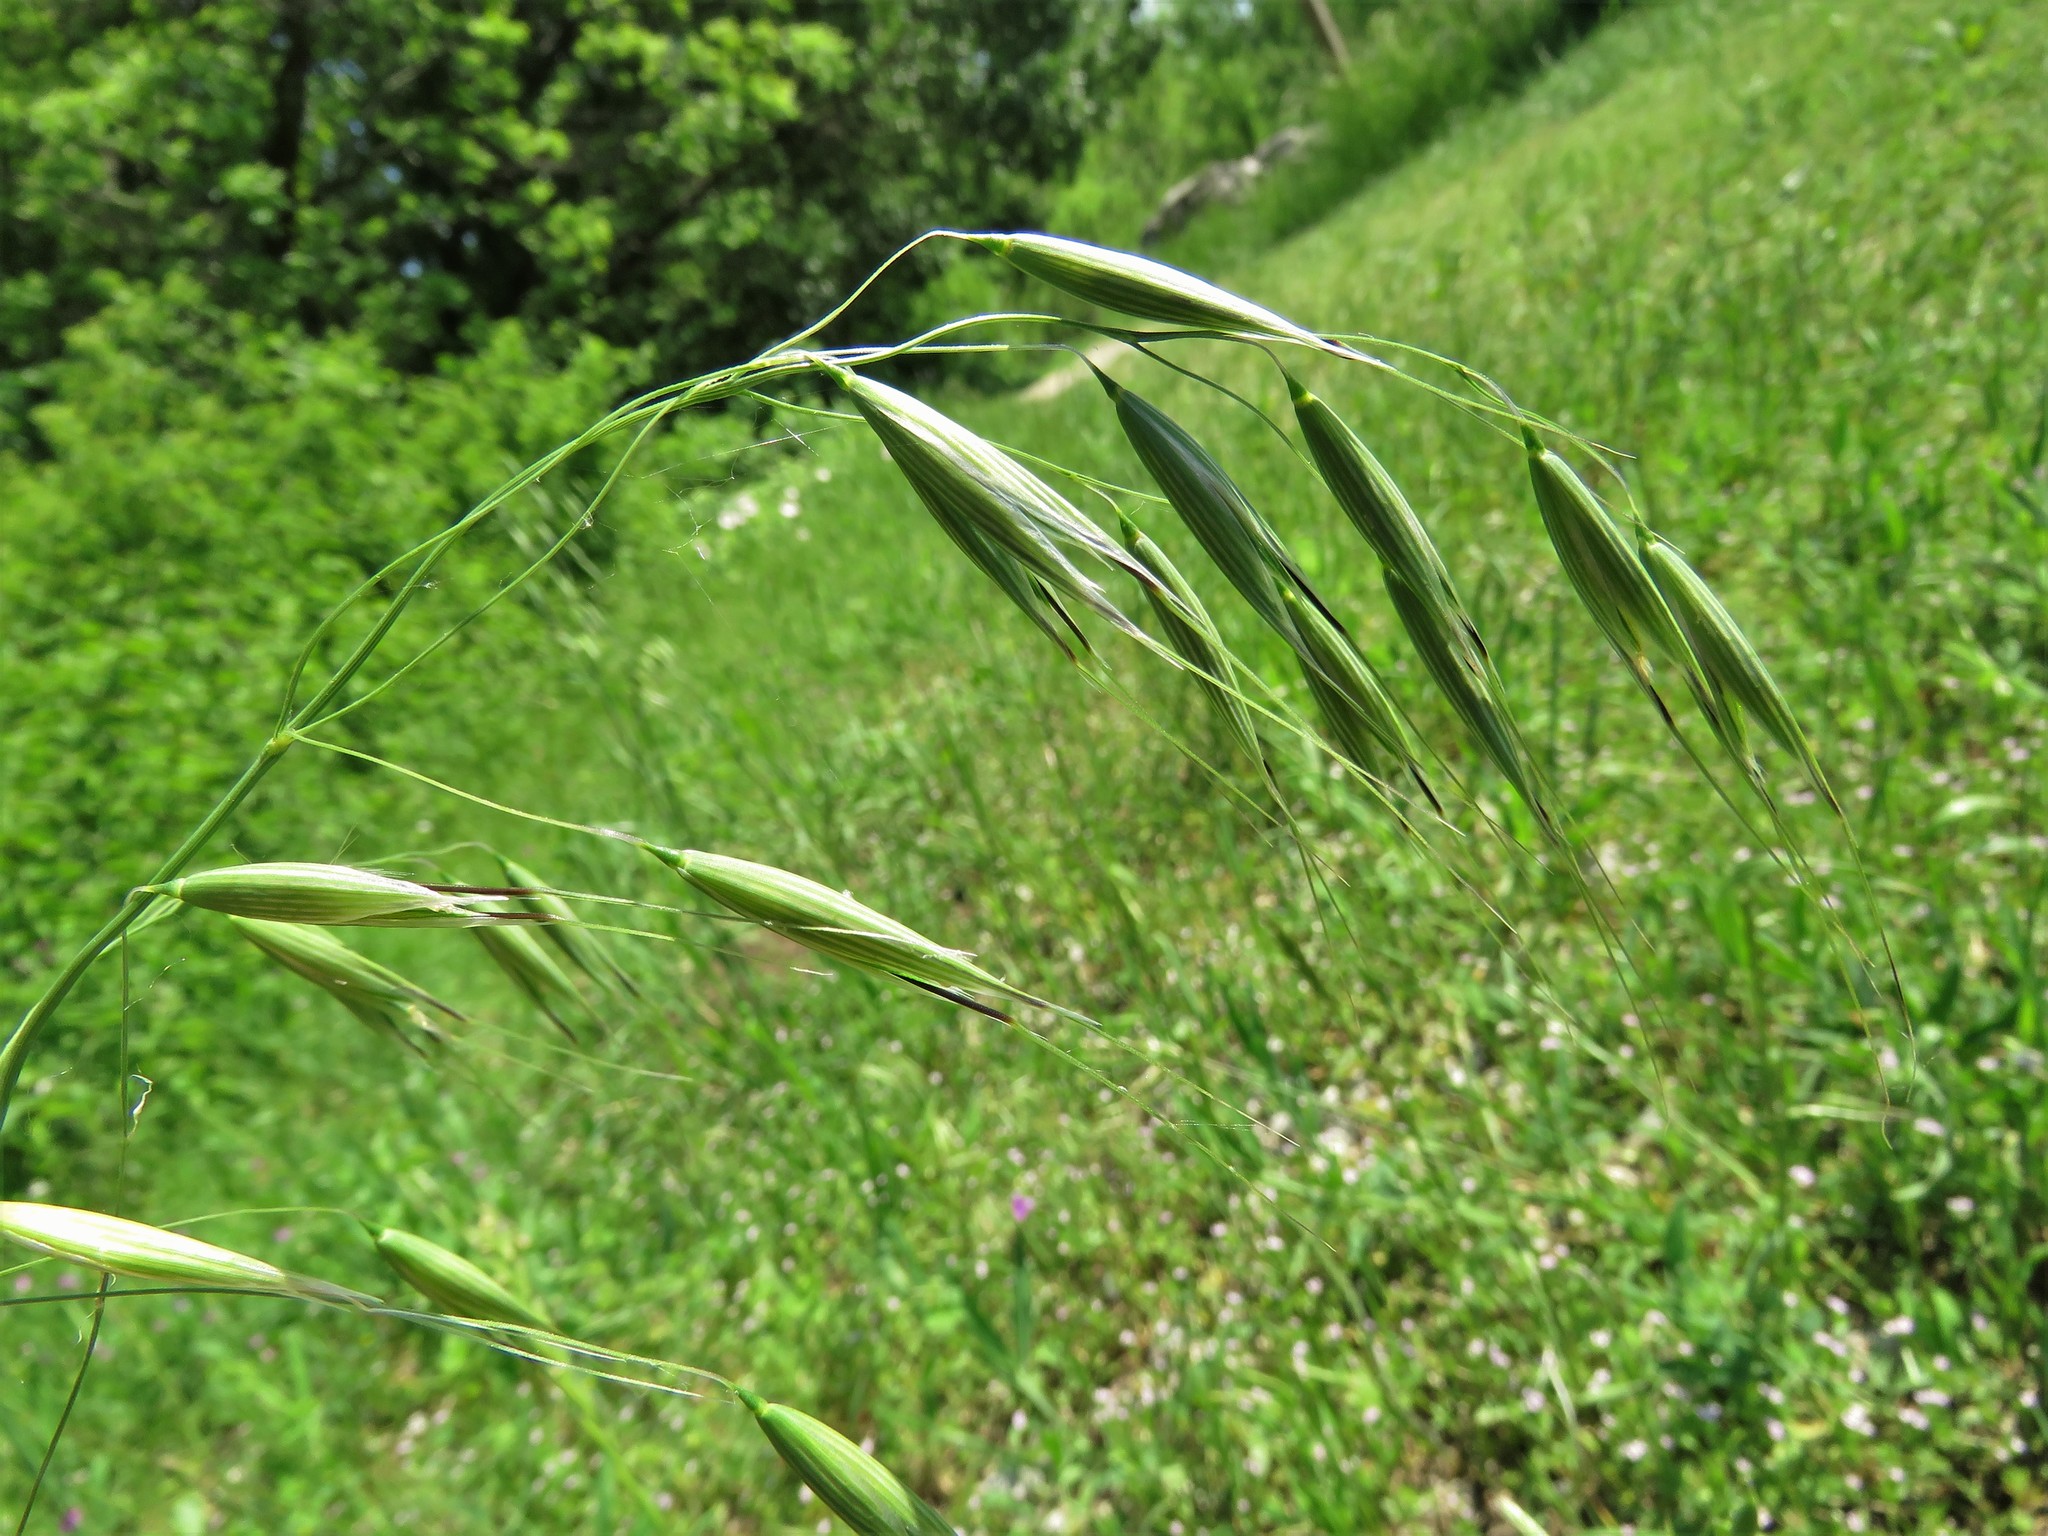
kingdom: Plantae
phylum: Tracheophyta
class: Liliopsida
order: Poales
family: Poaceae
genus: Avena
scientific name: Avena fatua
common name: Wild oat
